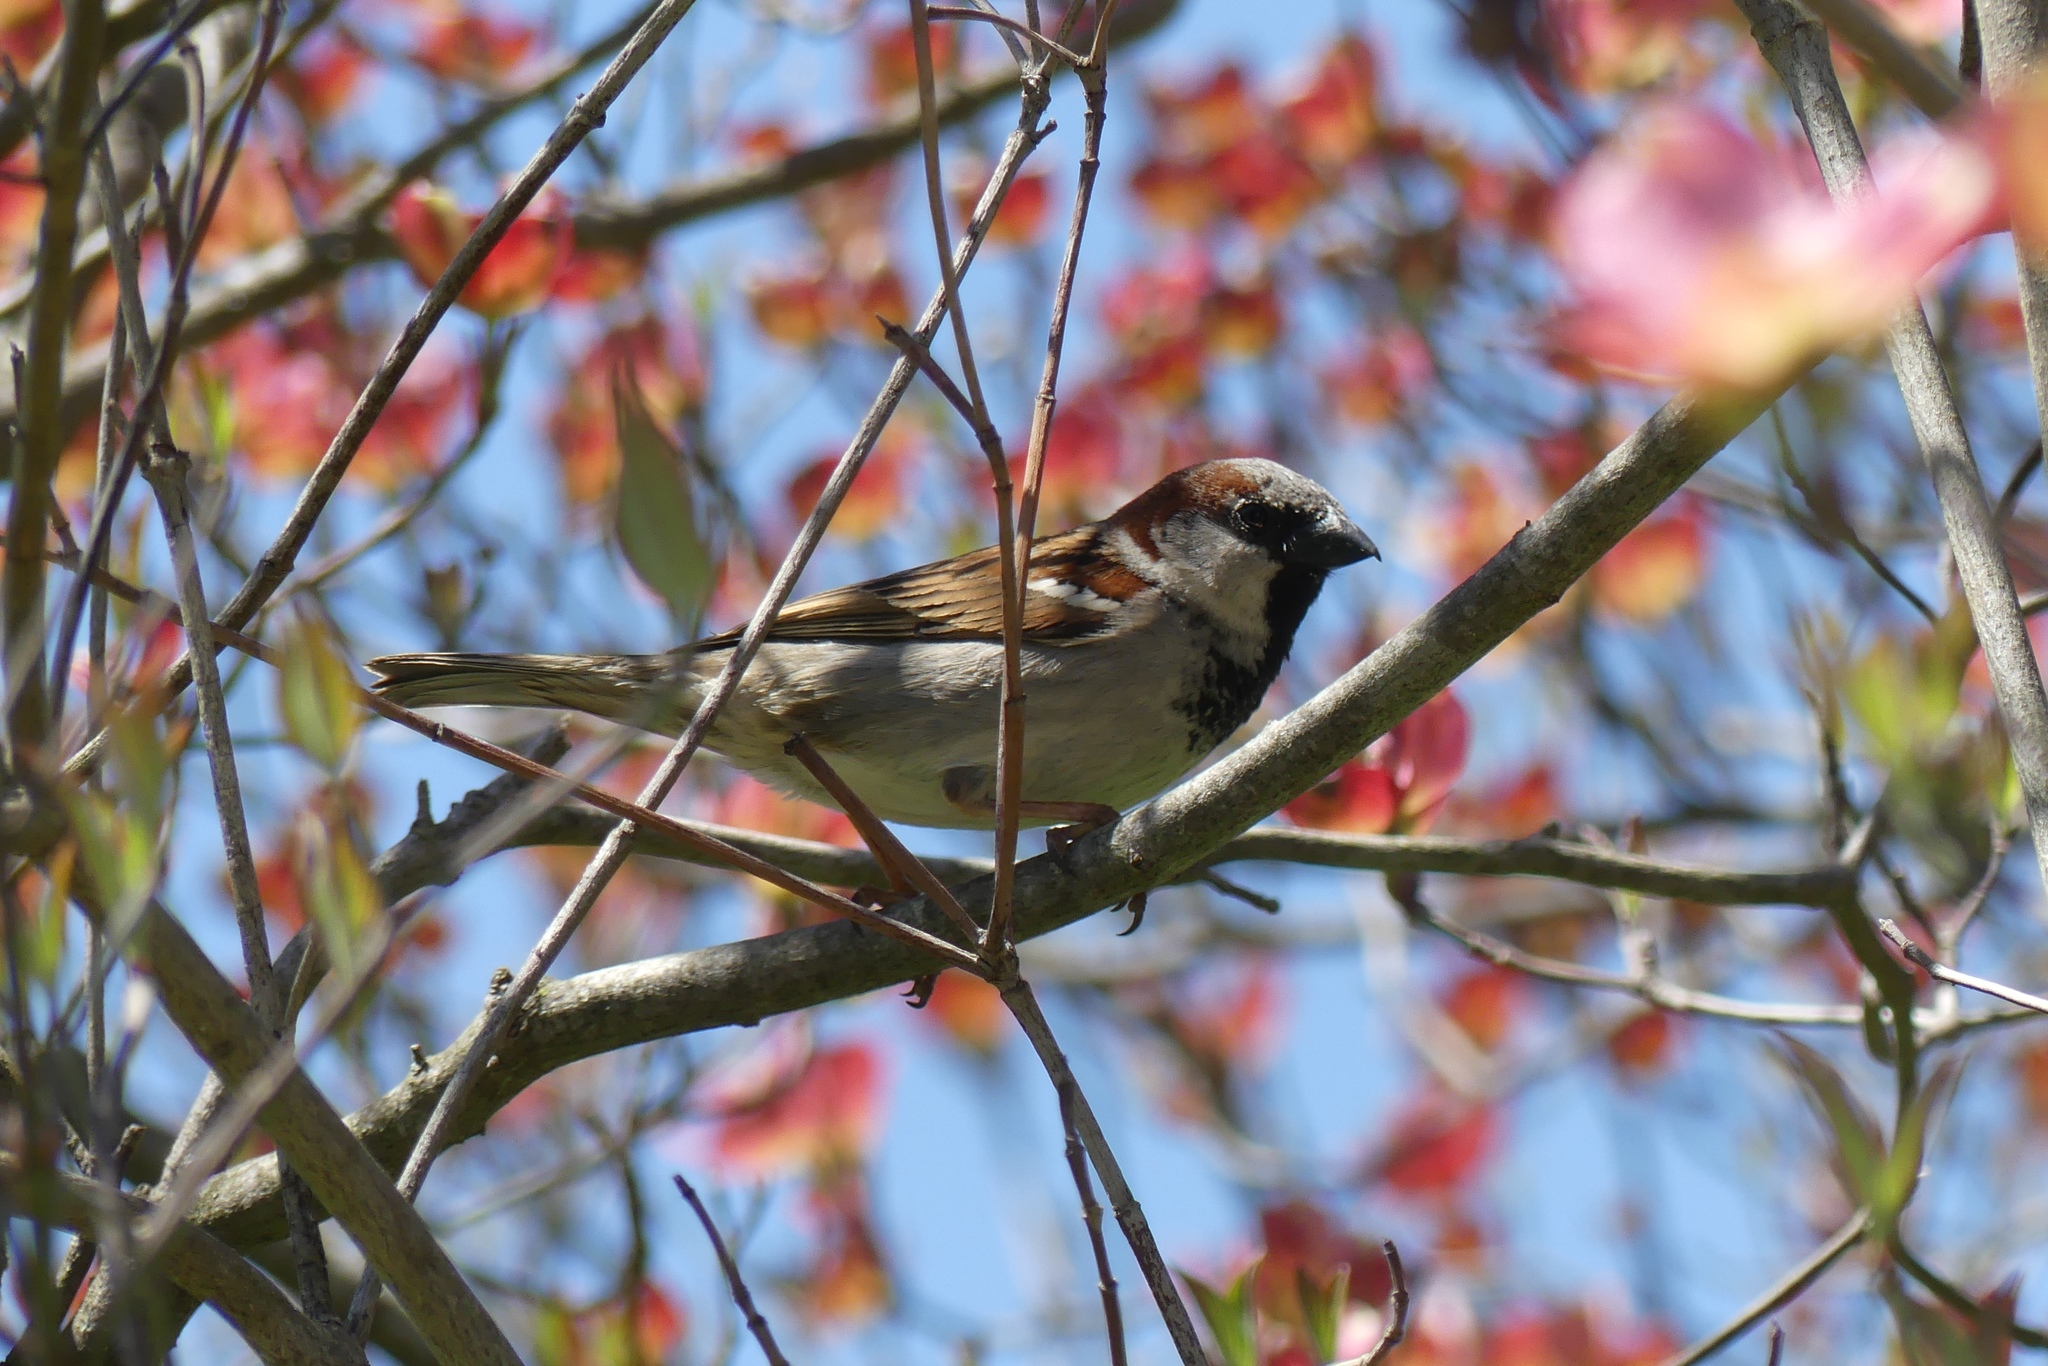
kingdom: Animalia
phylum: Chordata
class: Aves
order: Passeriformes
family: Passeridae
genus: Passer
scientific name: Passer domesticus
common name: House sparrow
